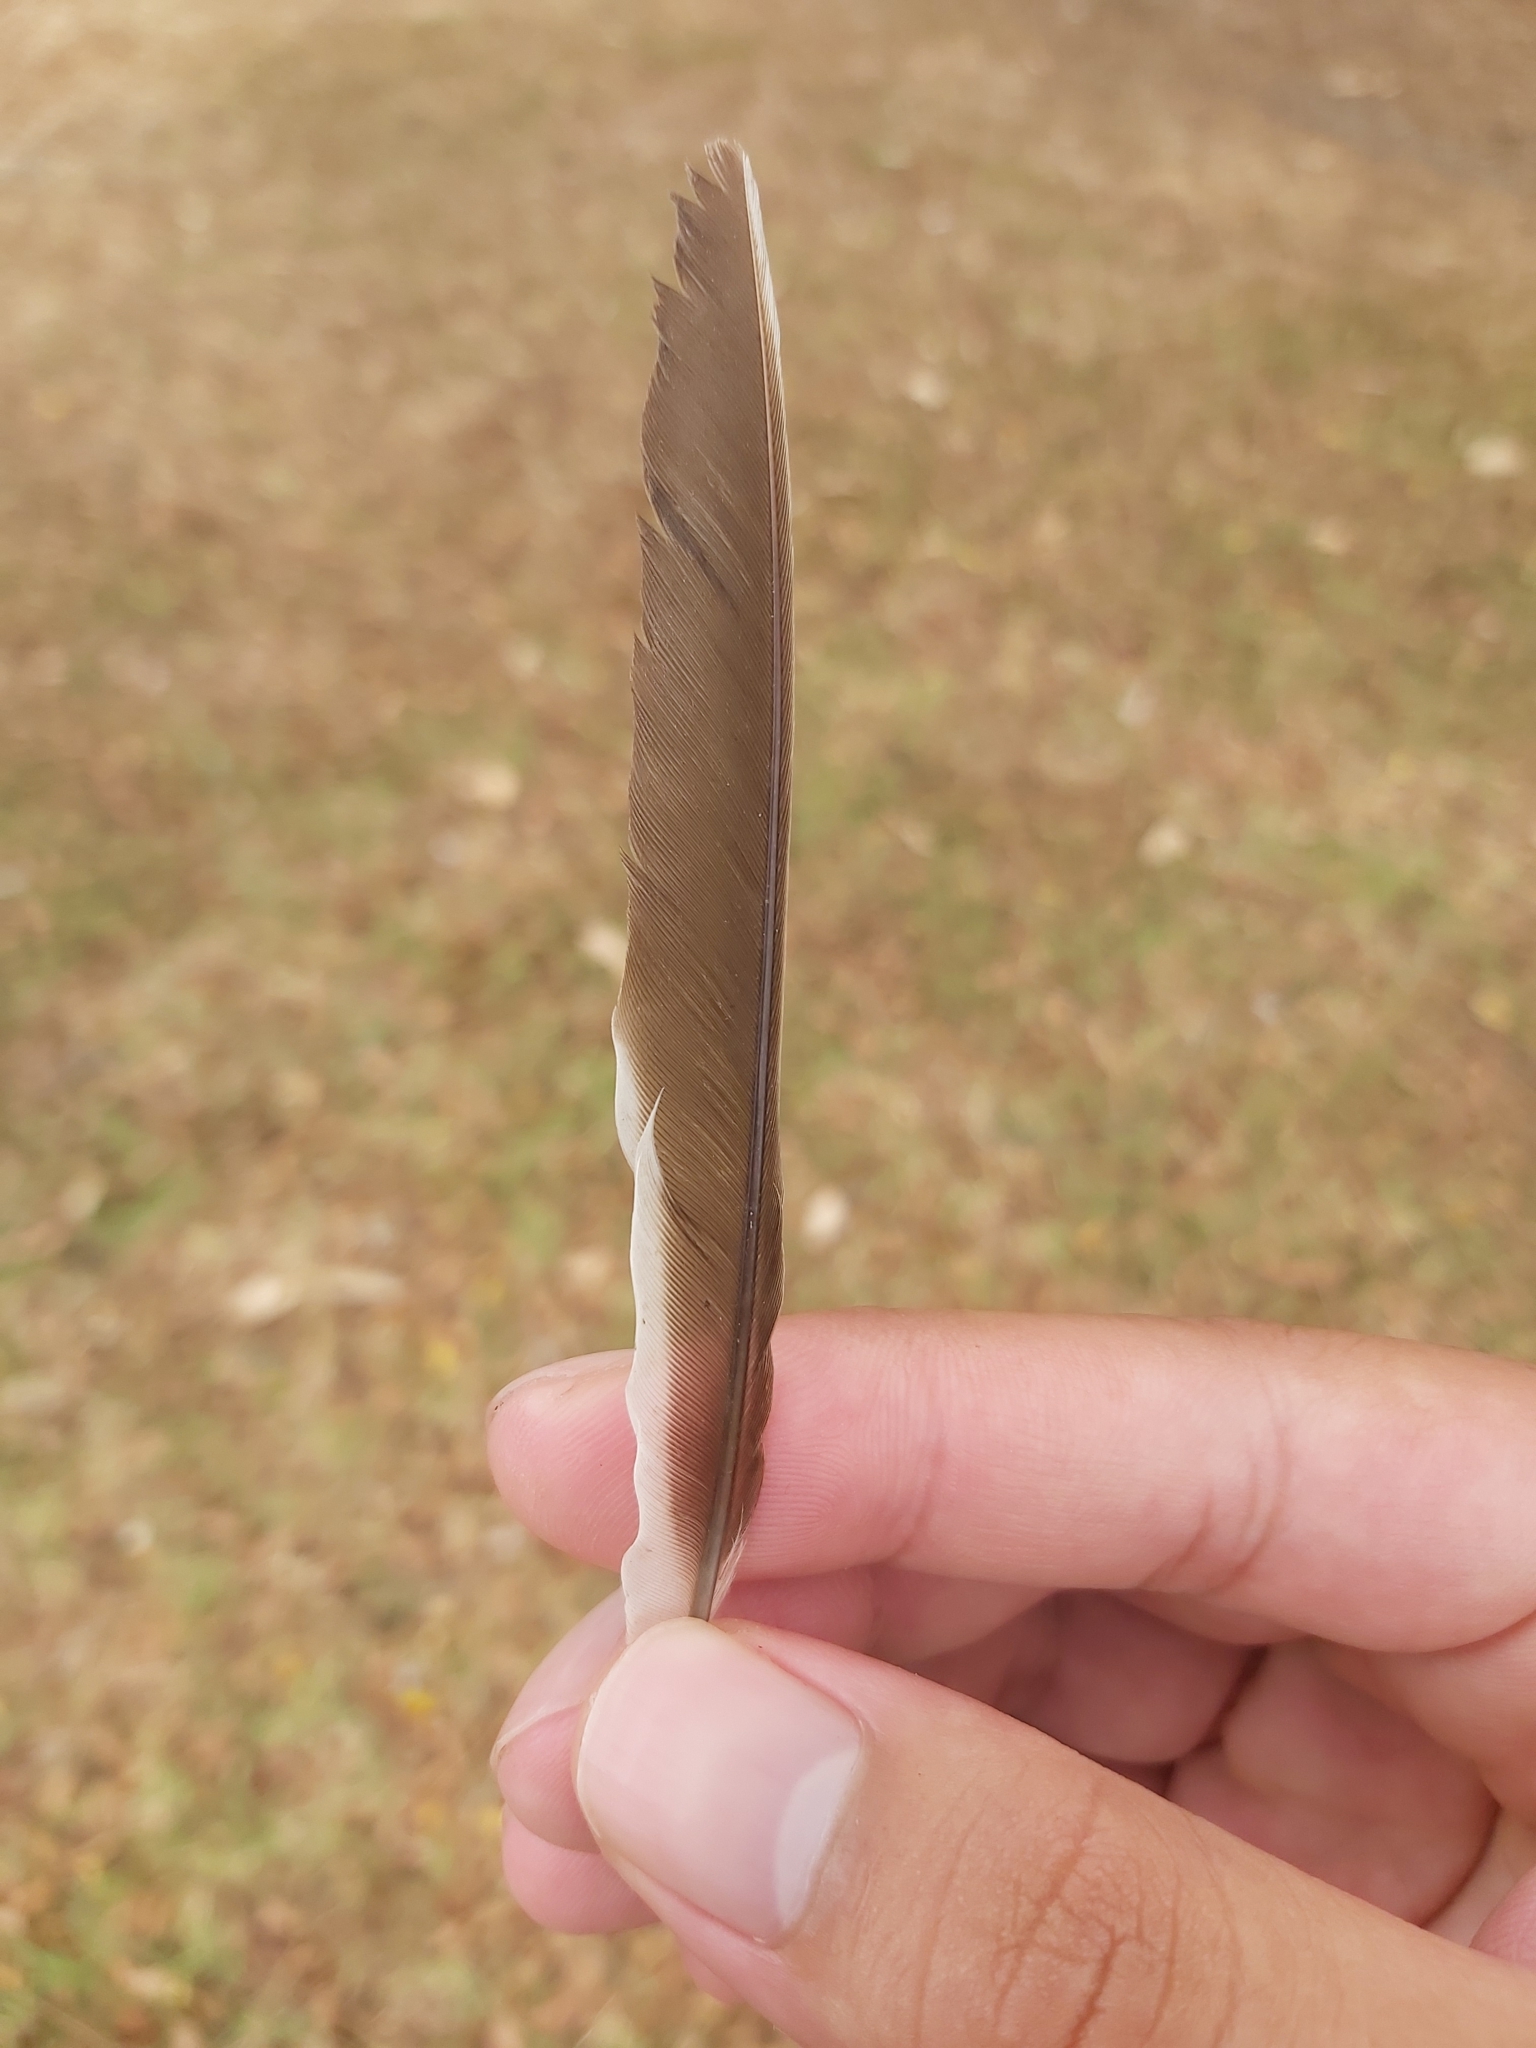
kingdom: Animalia
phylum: Chordata
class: Aves
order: Passeriformes
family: Meliphagidae
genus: Manorina
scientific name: Manorina melanocephala
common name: Noisy miner
